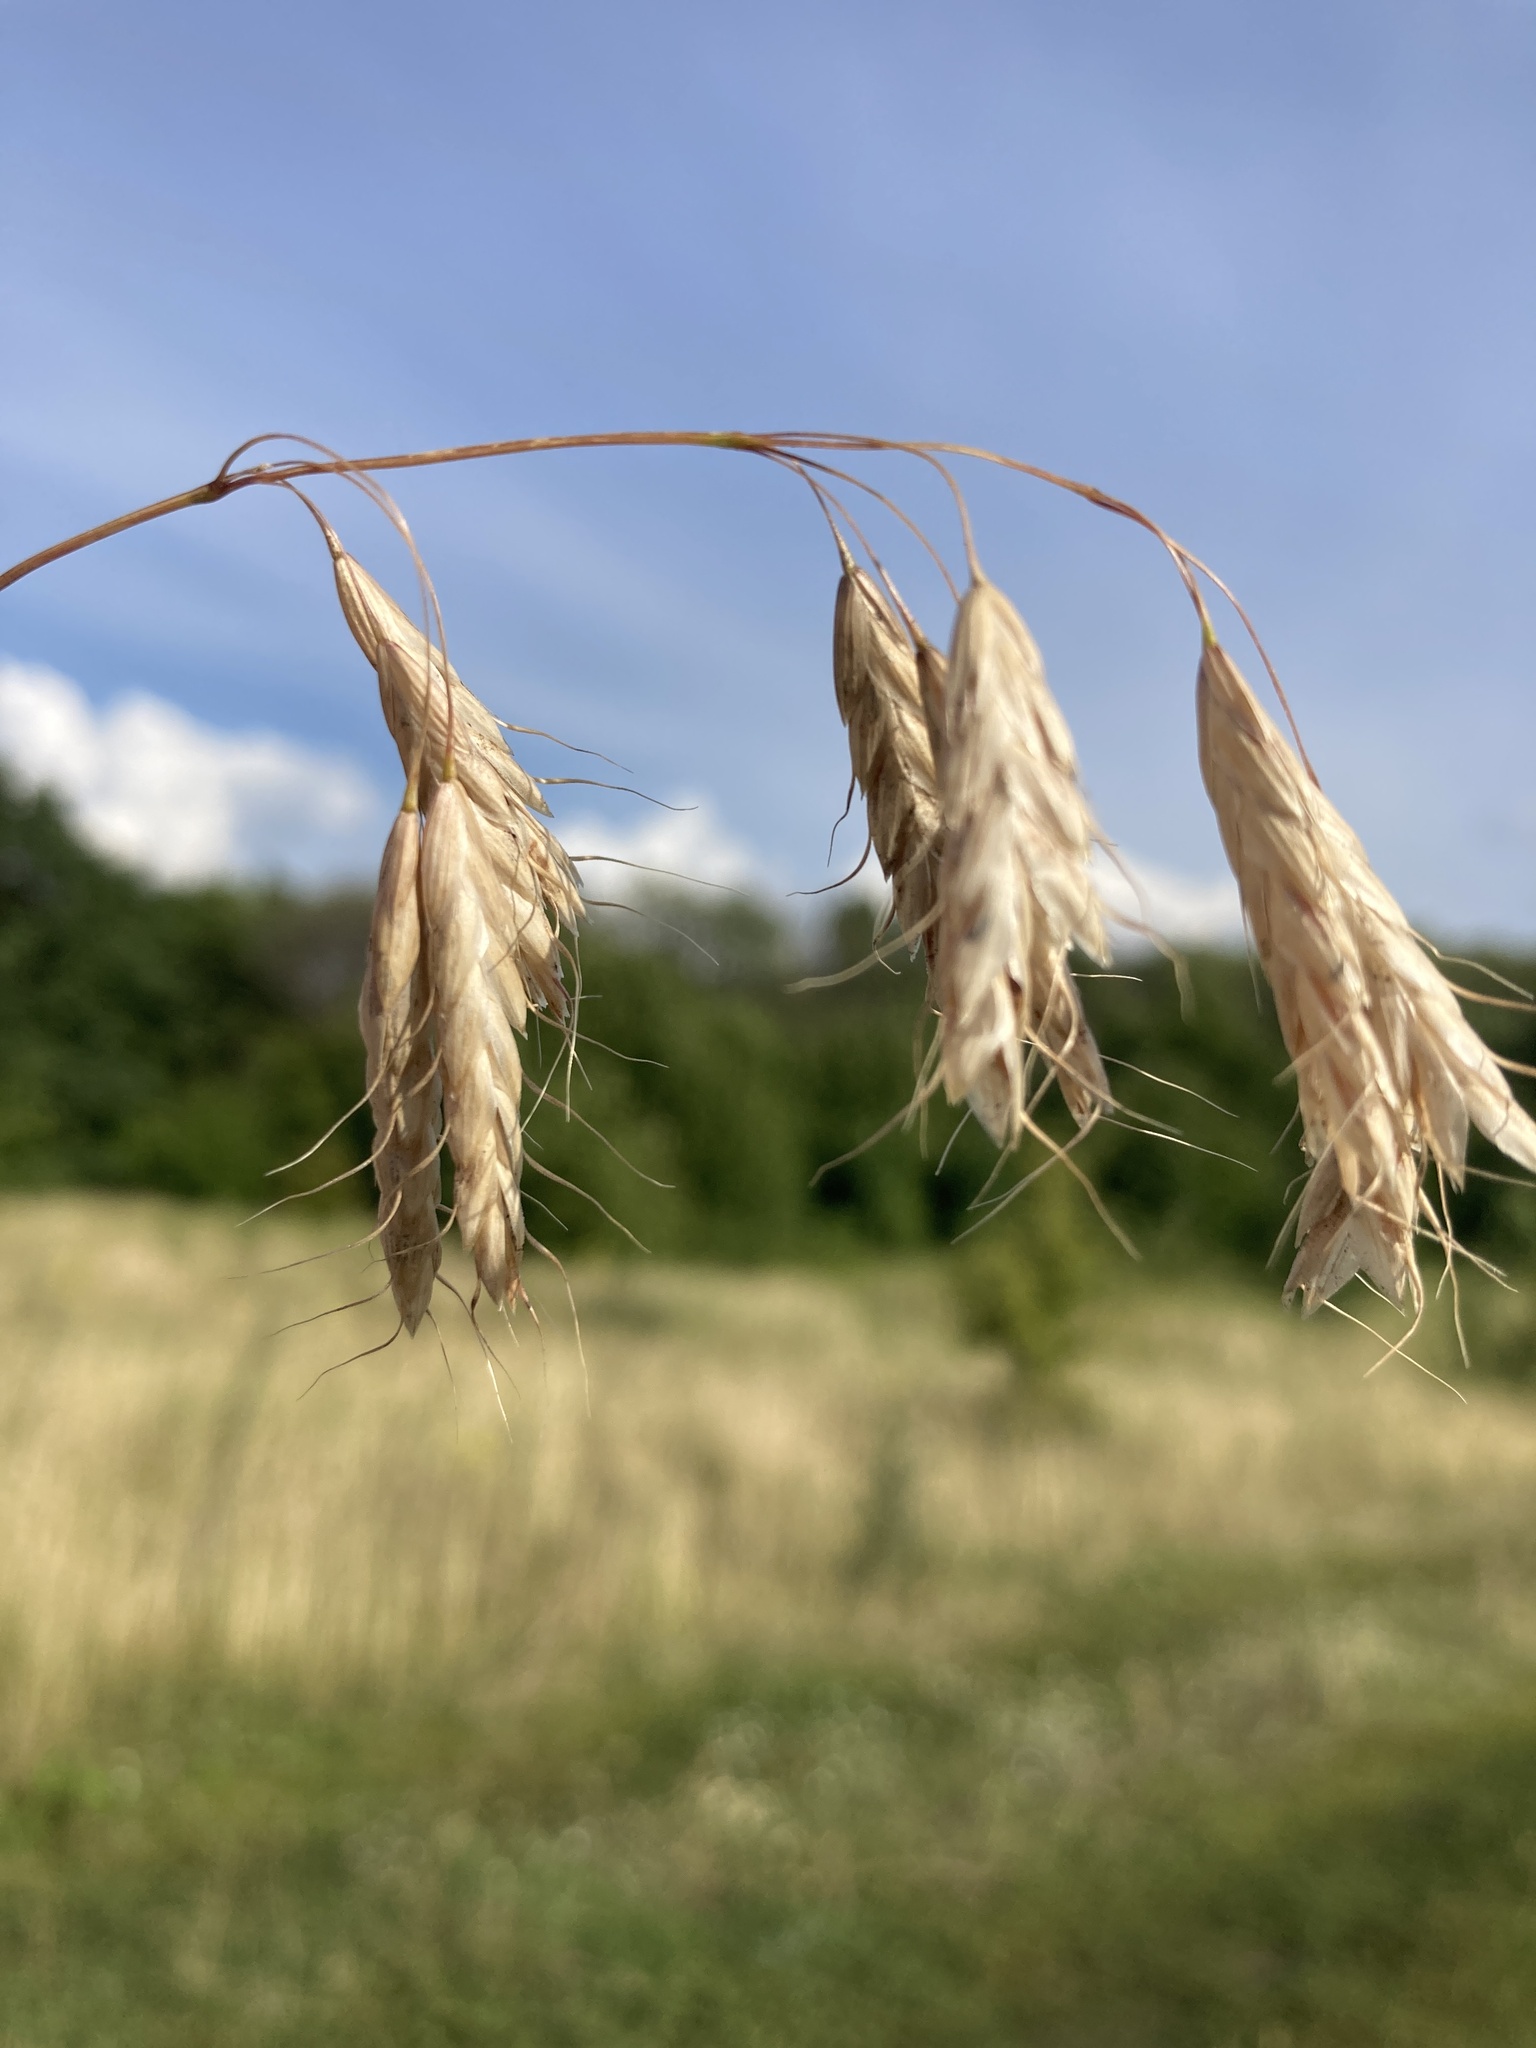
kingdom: Plantae
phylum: Tracheophyta
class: Liliopsida
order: Poales
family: Poaceae
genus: Bromus
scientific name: Bromus squarrosus
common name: Corn brome
